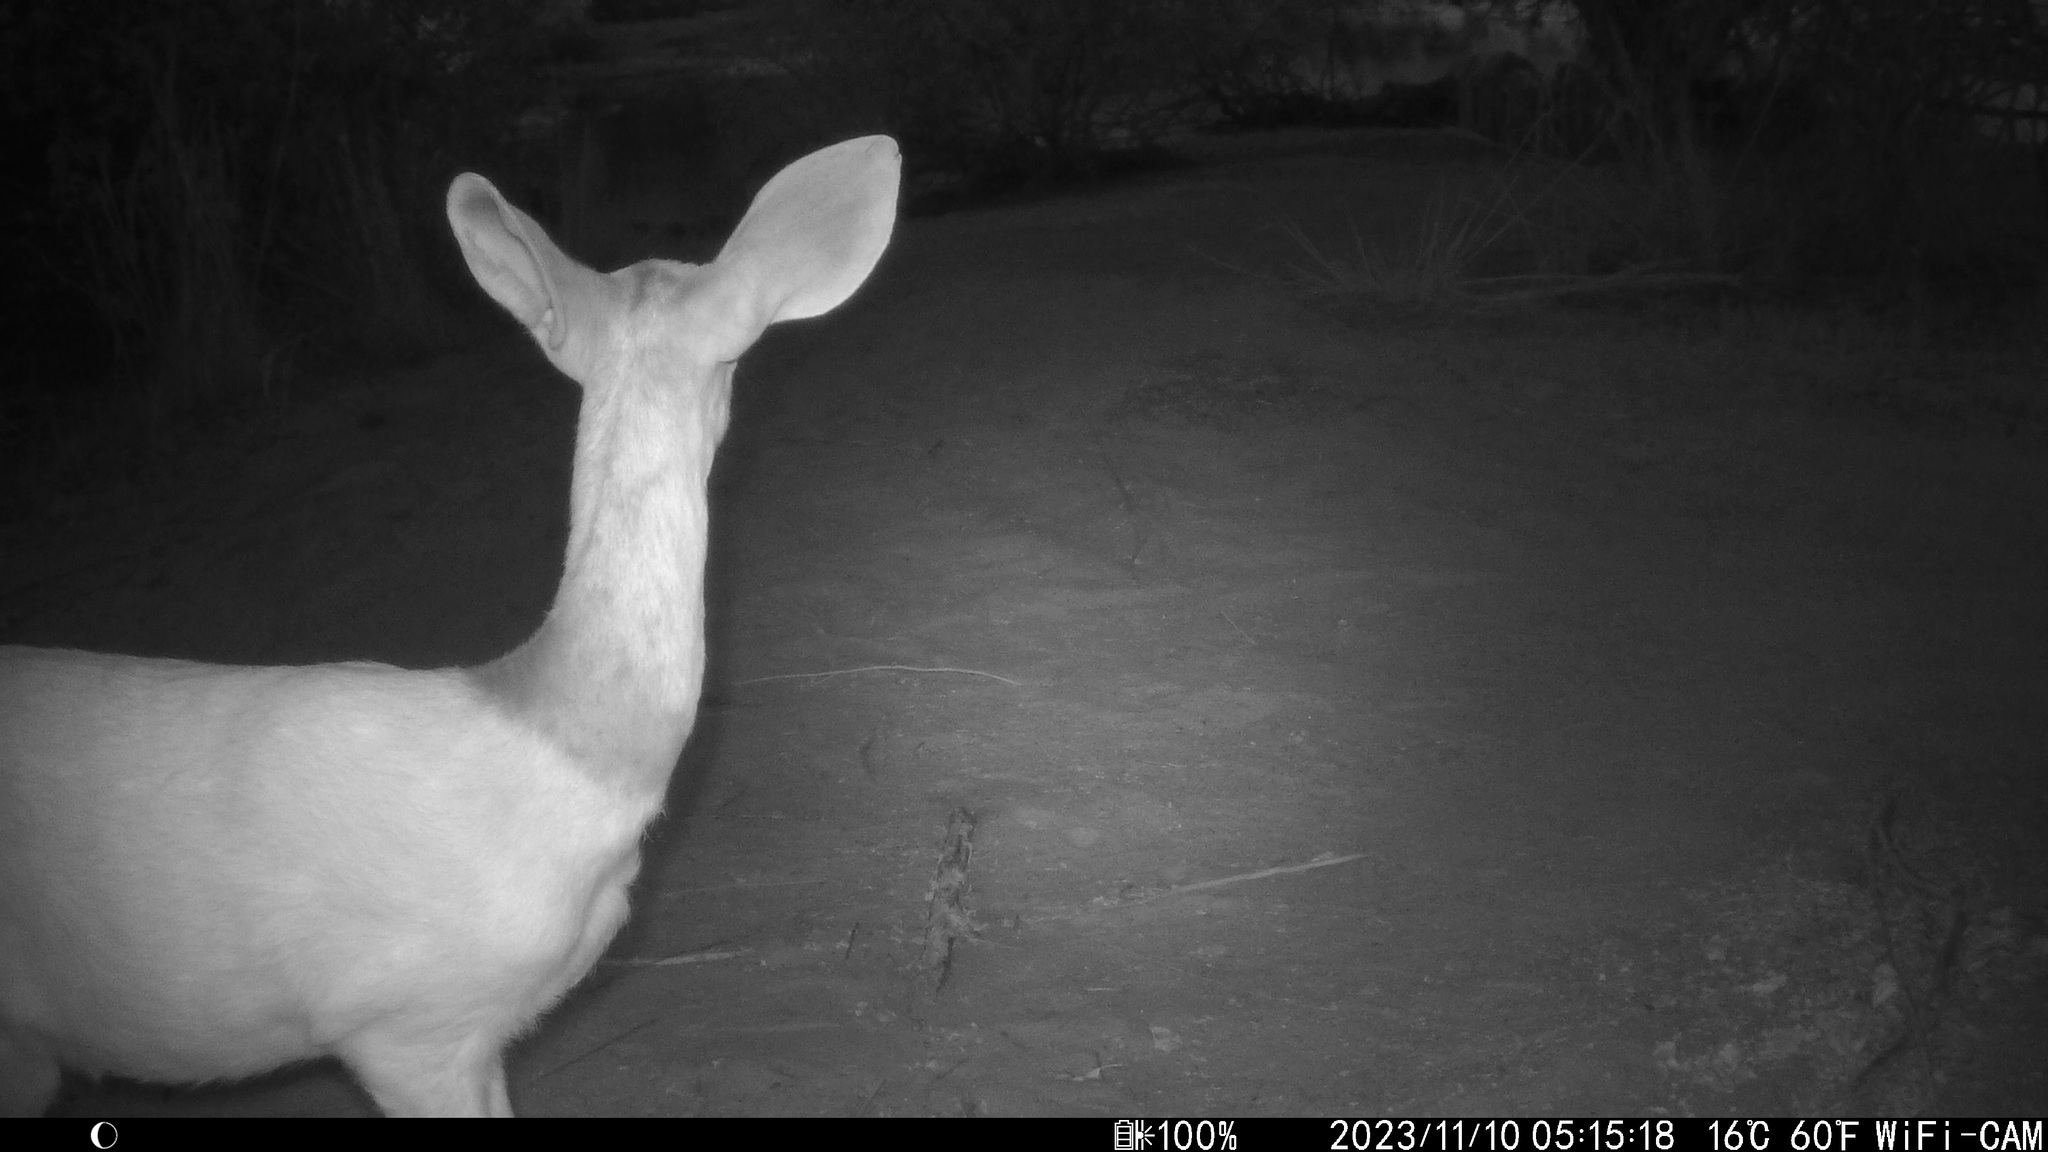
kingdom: Animalia
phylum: Chordata
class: Mammalia
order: Artiodactyla
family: Bovidae
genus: Tragelaphus
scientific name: Tragelaphus scriptus
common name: Bushbuck
